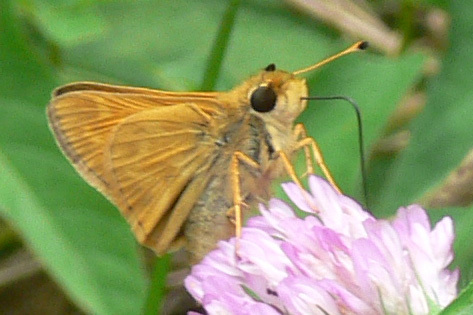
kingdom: Animalia
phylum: Arthropoda
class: Insecta
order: Lepidoptera
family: Hesperiidae
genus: Atalopedes
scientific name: Atalopedes
